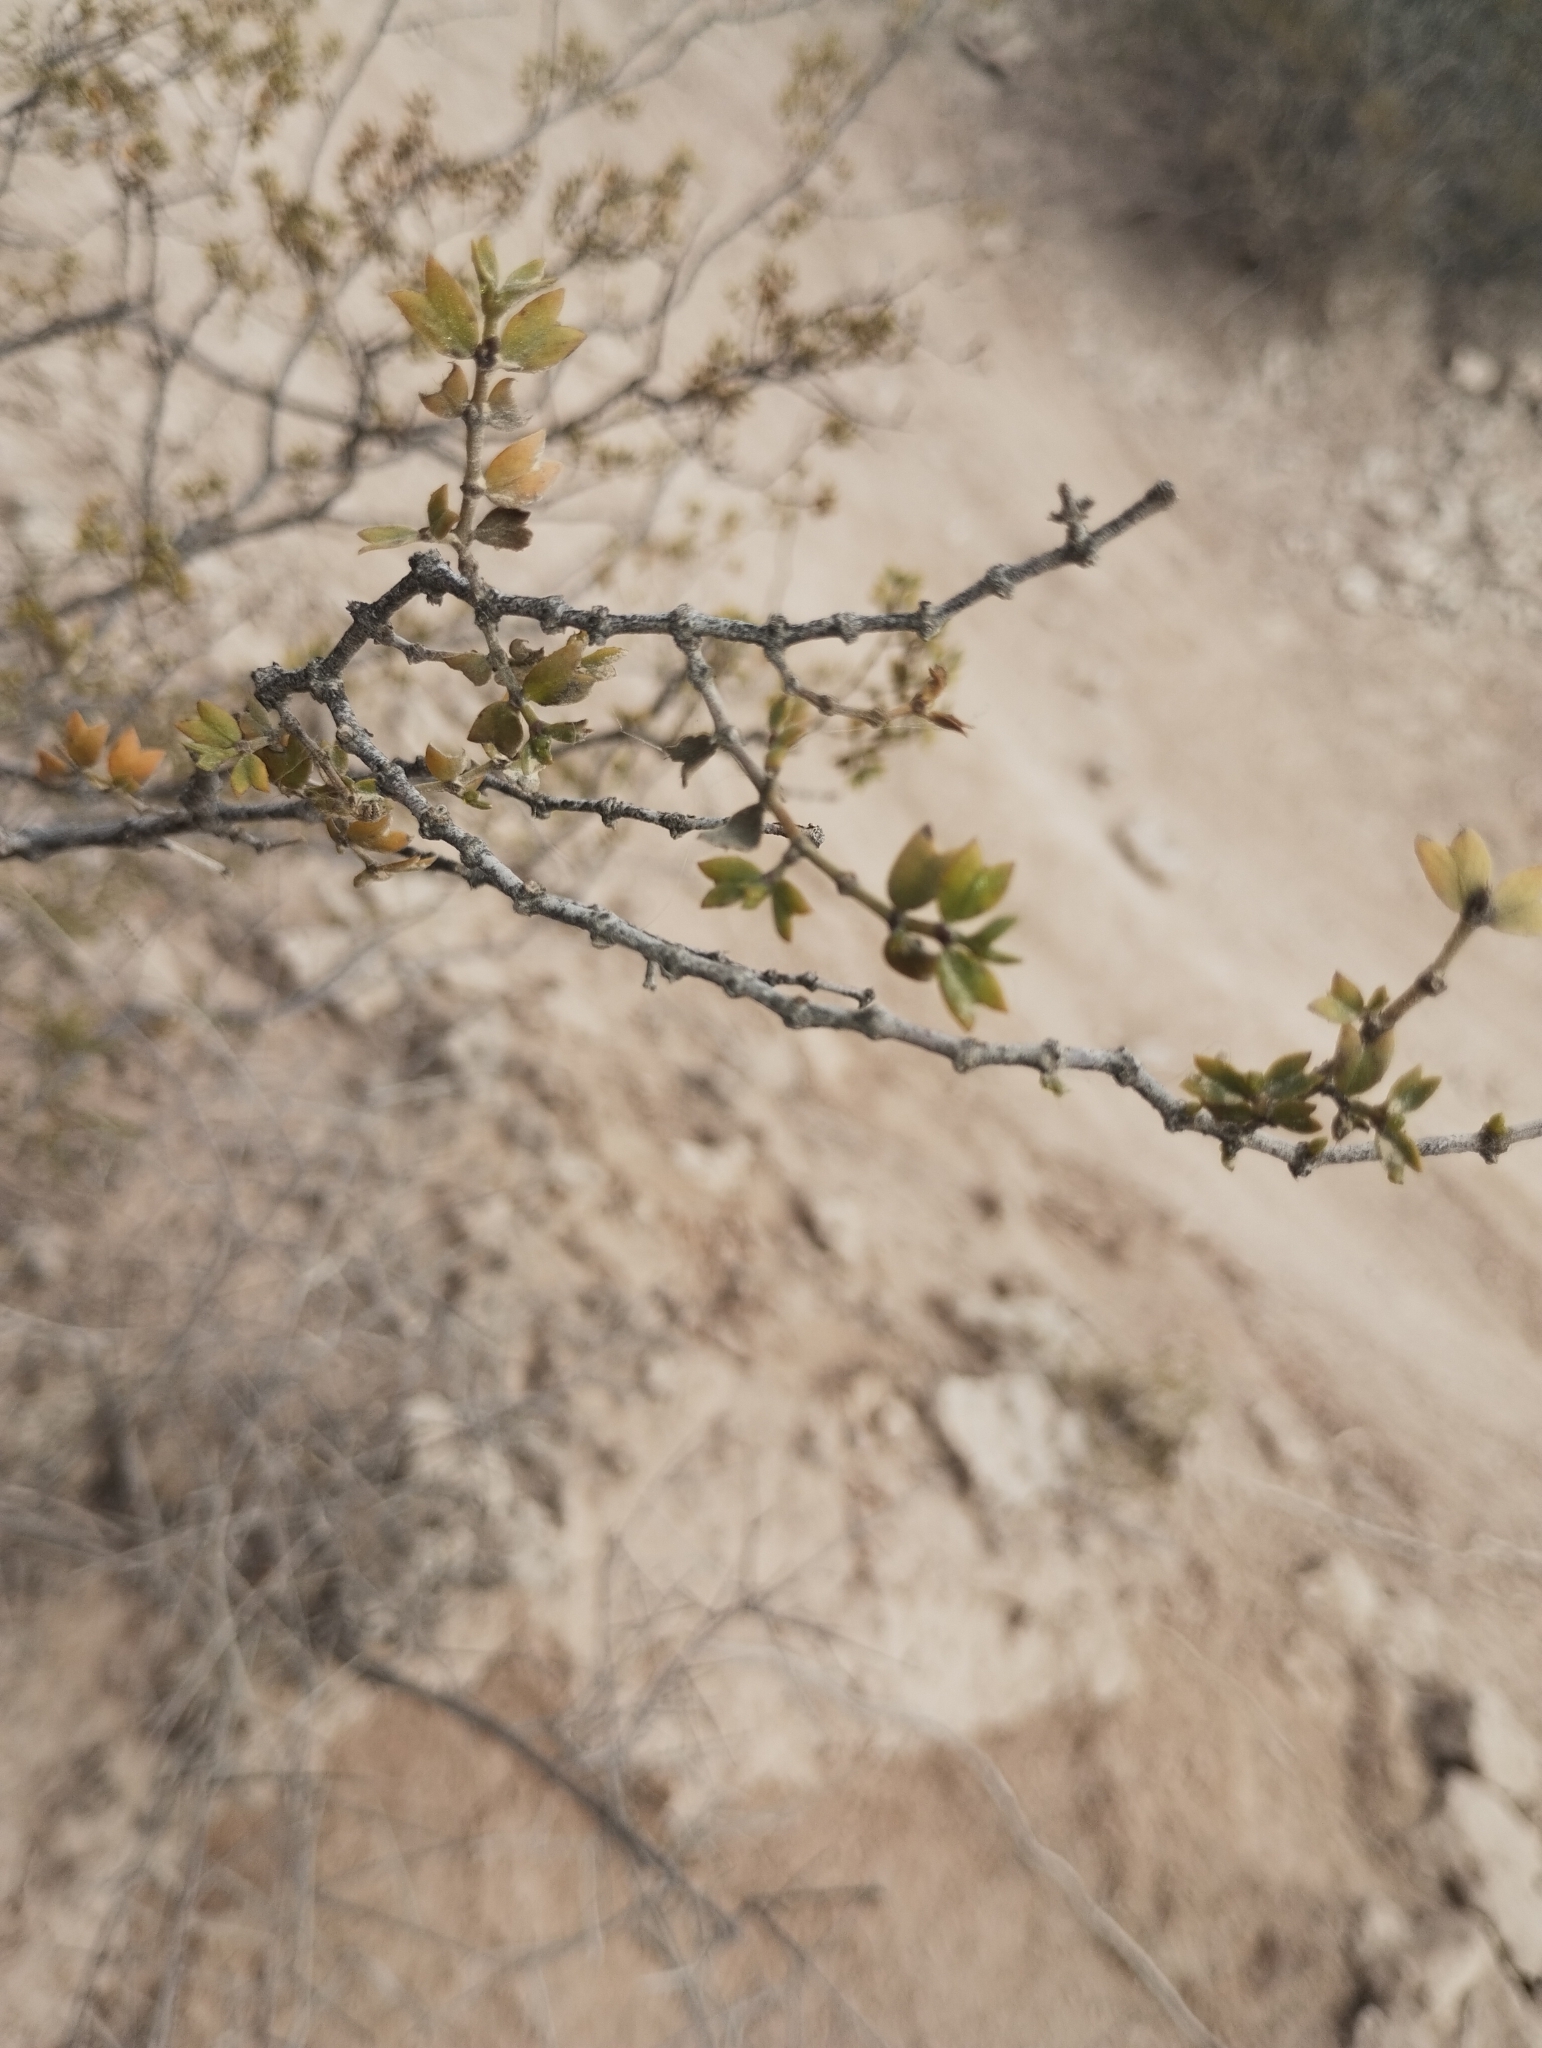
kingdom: Plantae
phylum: Tracheophyta
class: Magnoliopsida
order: Zygophyllales
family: Zygophyllaceae
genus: Larrea
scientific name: Larrea cuneifolia
